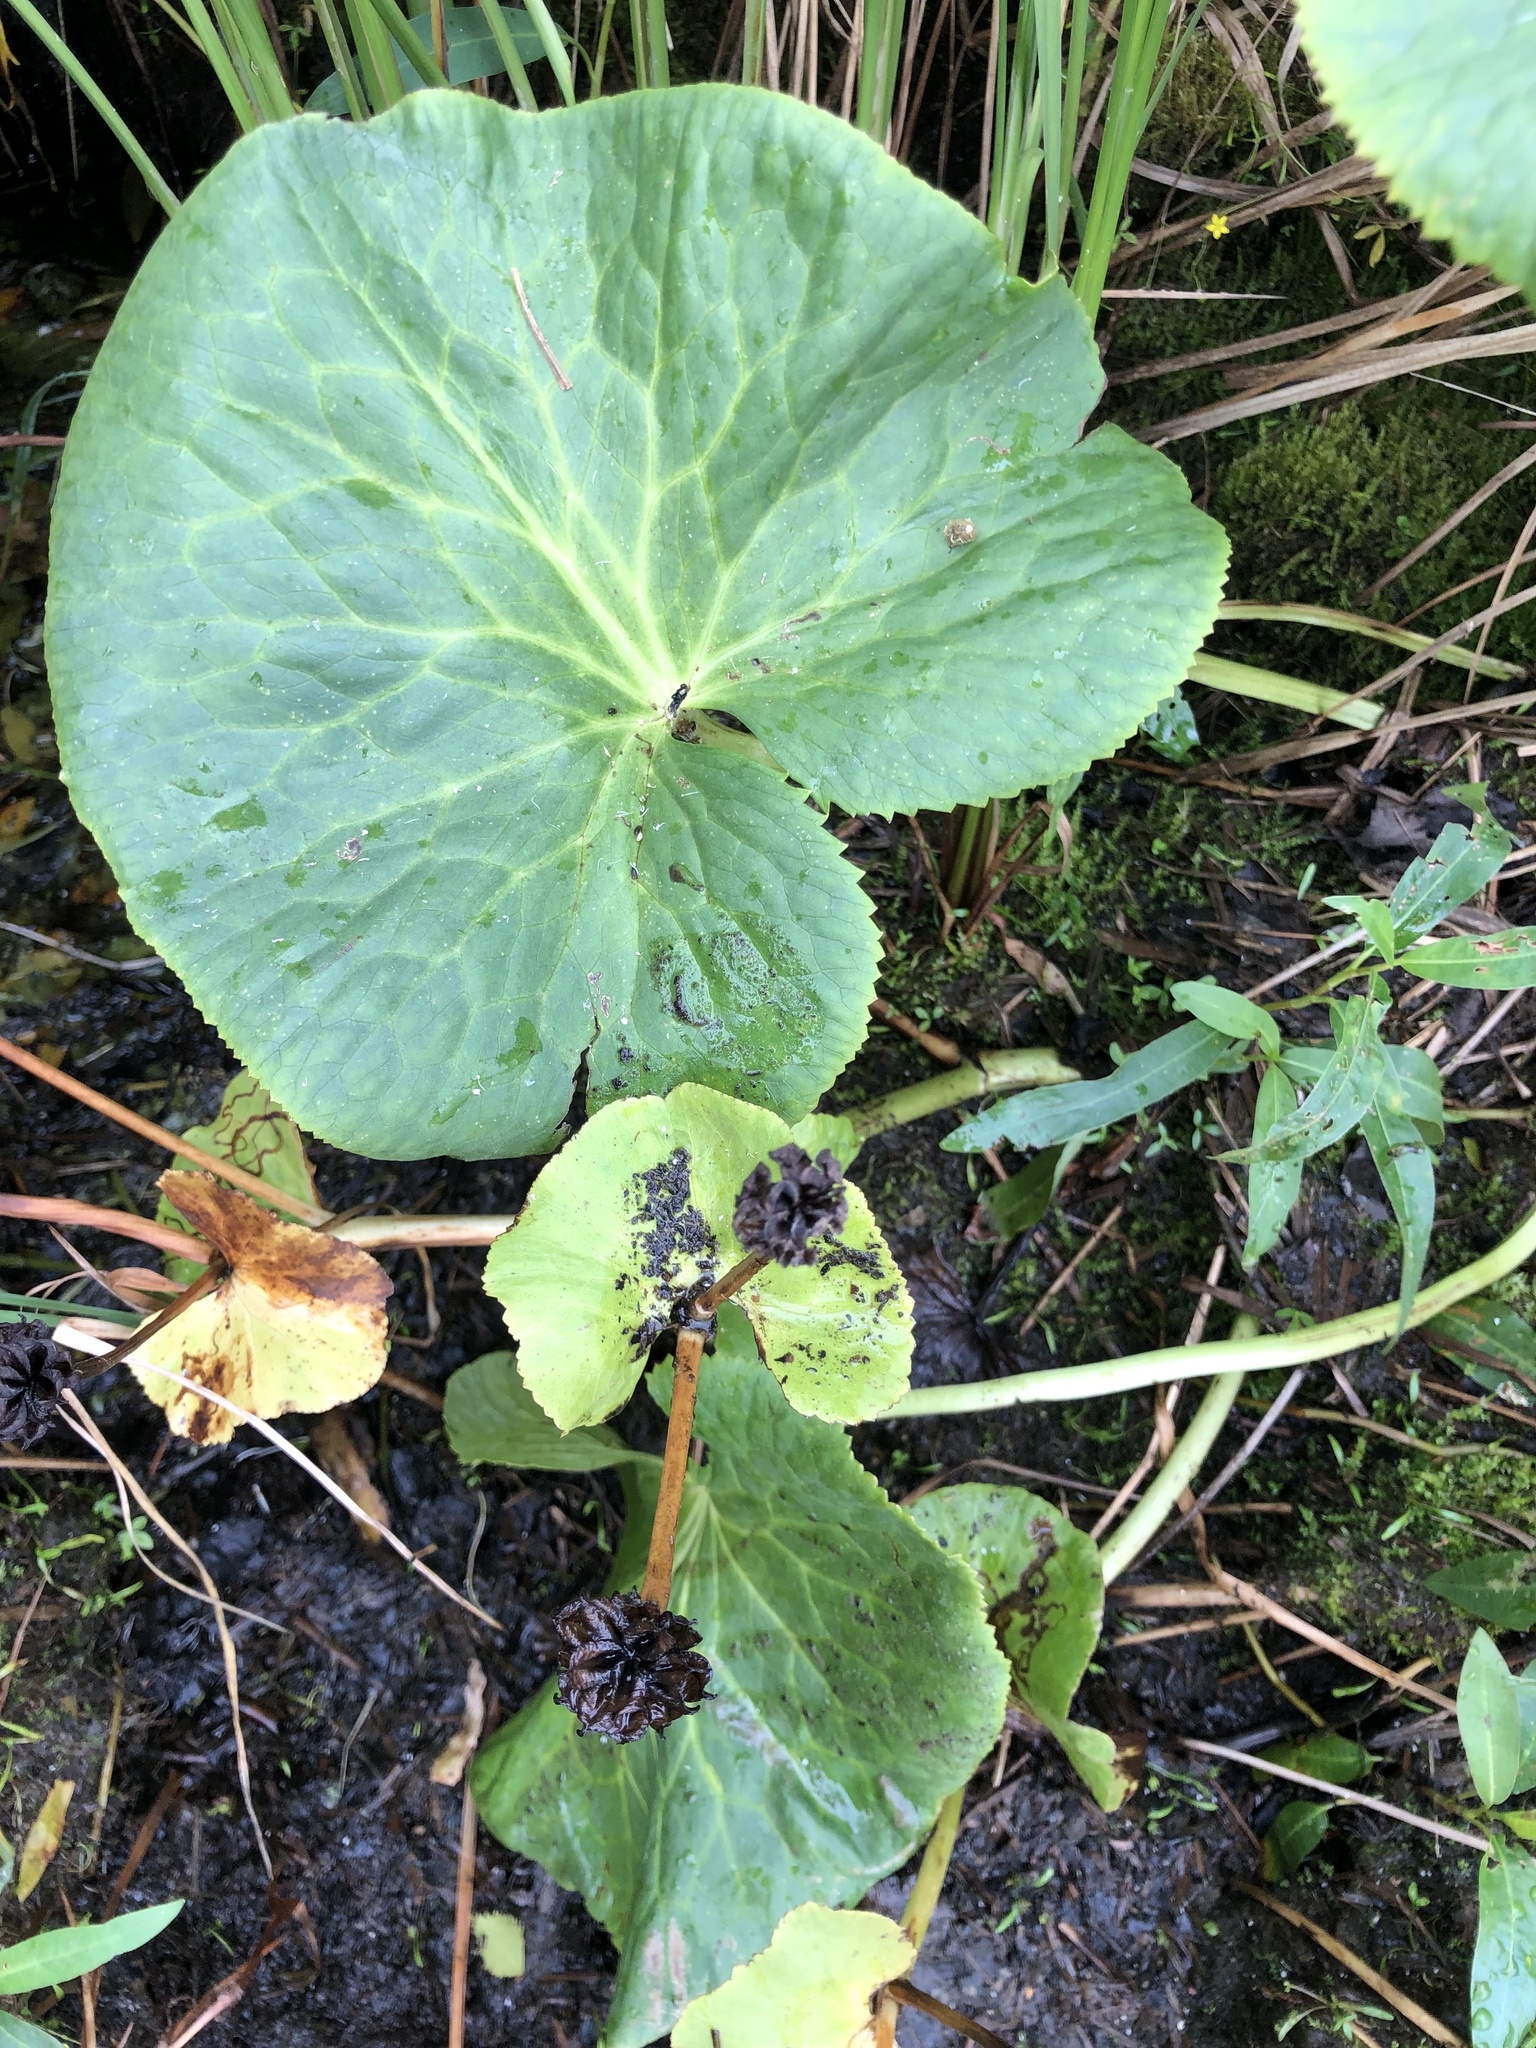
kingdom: Plantae
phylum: Tracheophyta
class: Magnoliopsida
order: Ranunculales
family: Ranunculaceae
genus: Caltha
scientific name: Caltha palustris
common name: Marsh marigold
